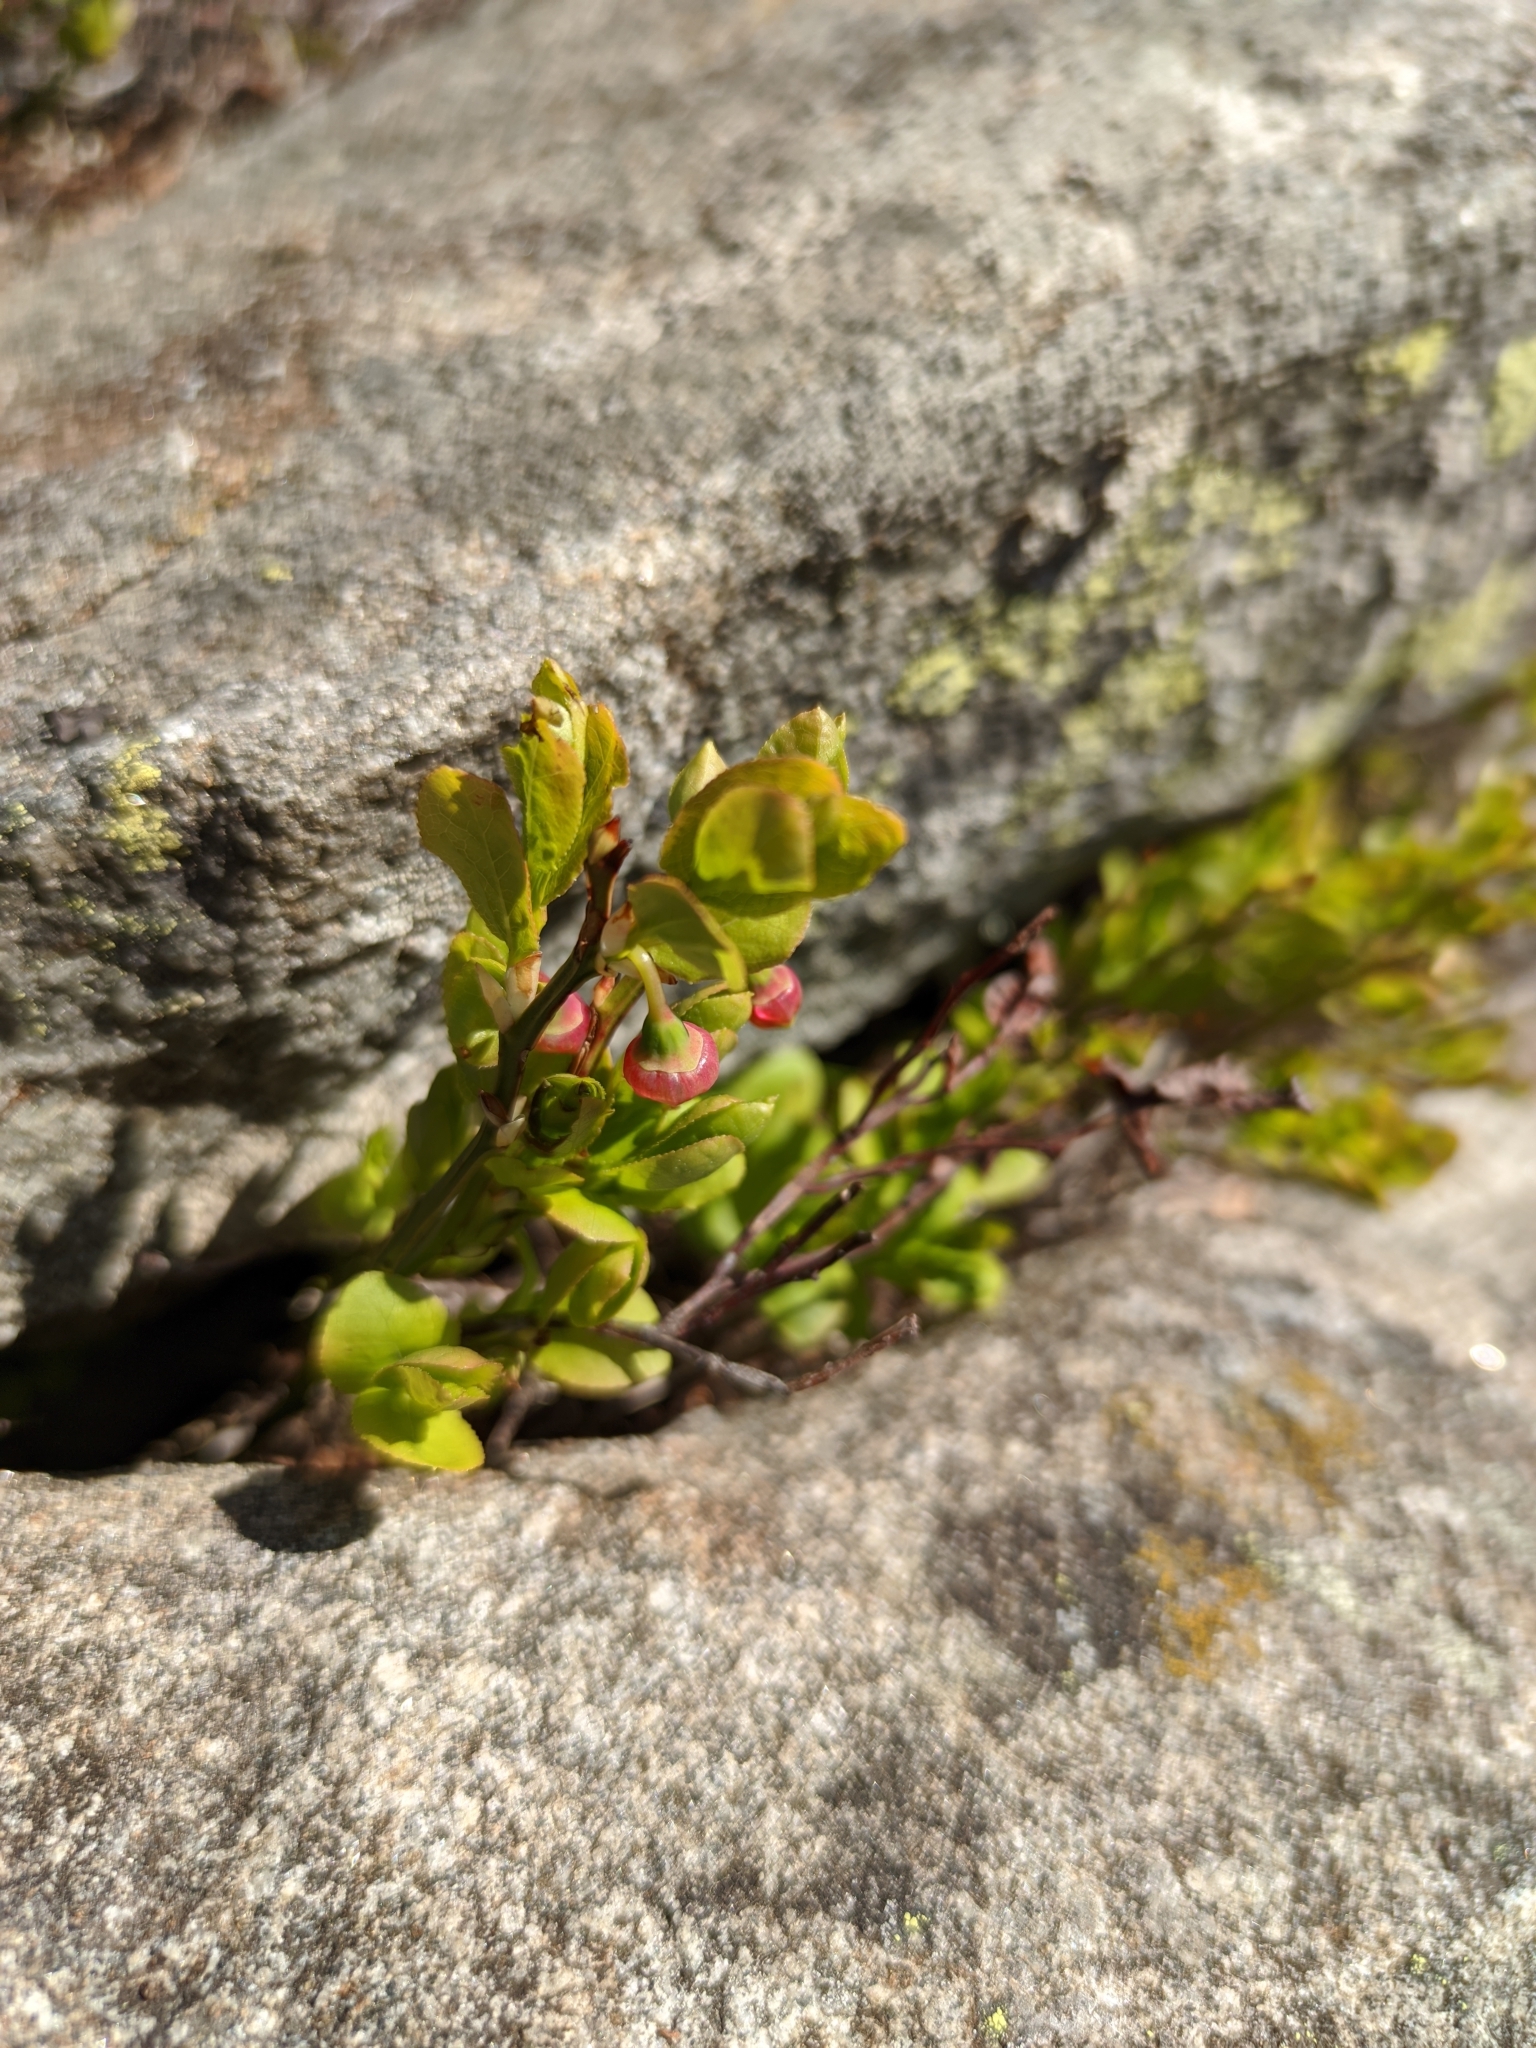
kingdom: Plantae
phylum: Tracheophyta
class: Magnoliopsida
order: Ericales
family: Ericaceae
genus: Vaccinium
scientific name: Vaccinium myrtillus
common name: Bilberry
